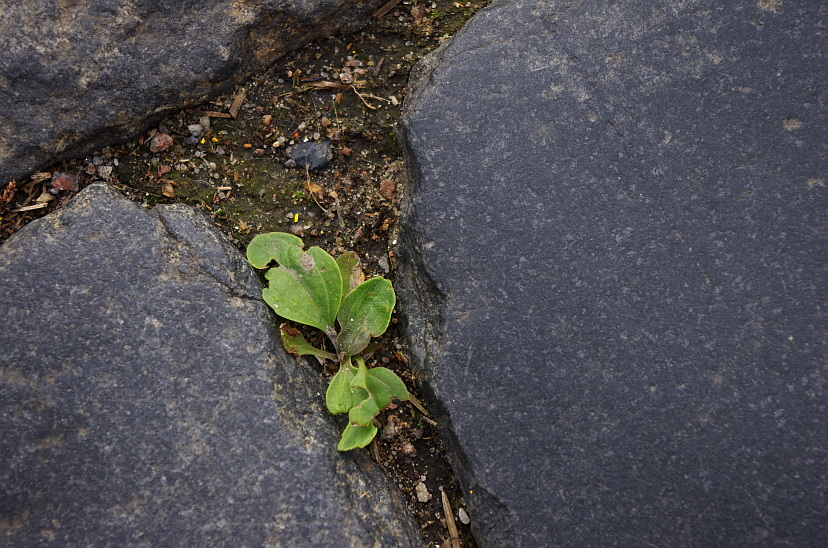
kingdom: Plantae
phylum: Tracheophyta
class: Magnoliopsida
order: Lamiales
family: Plantaginaceae
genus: Plantago
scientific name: Plantago major
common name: Common plantain
